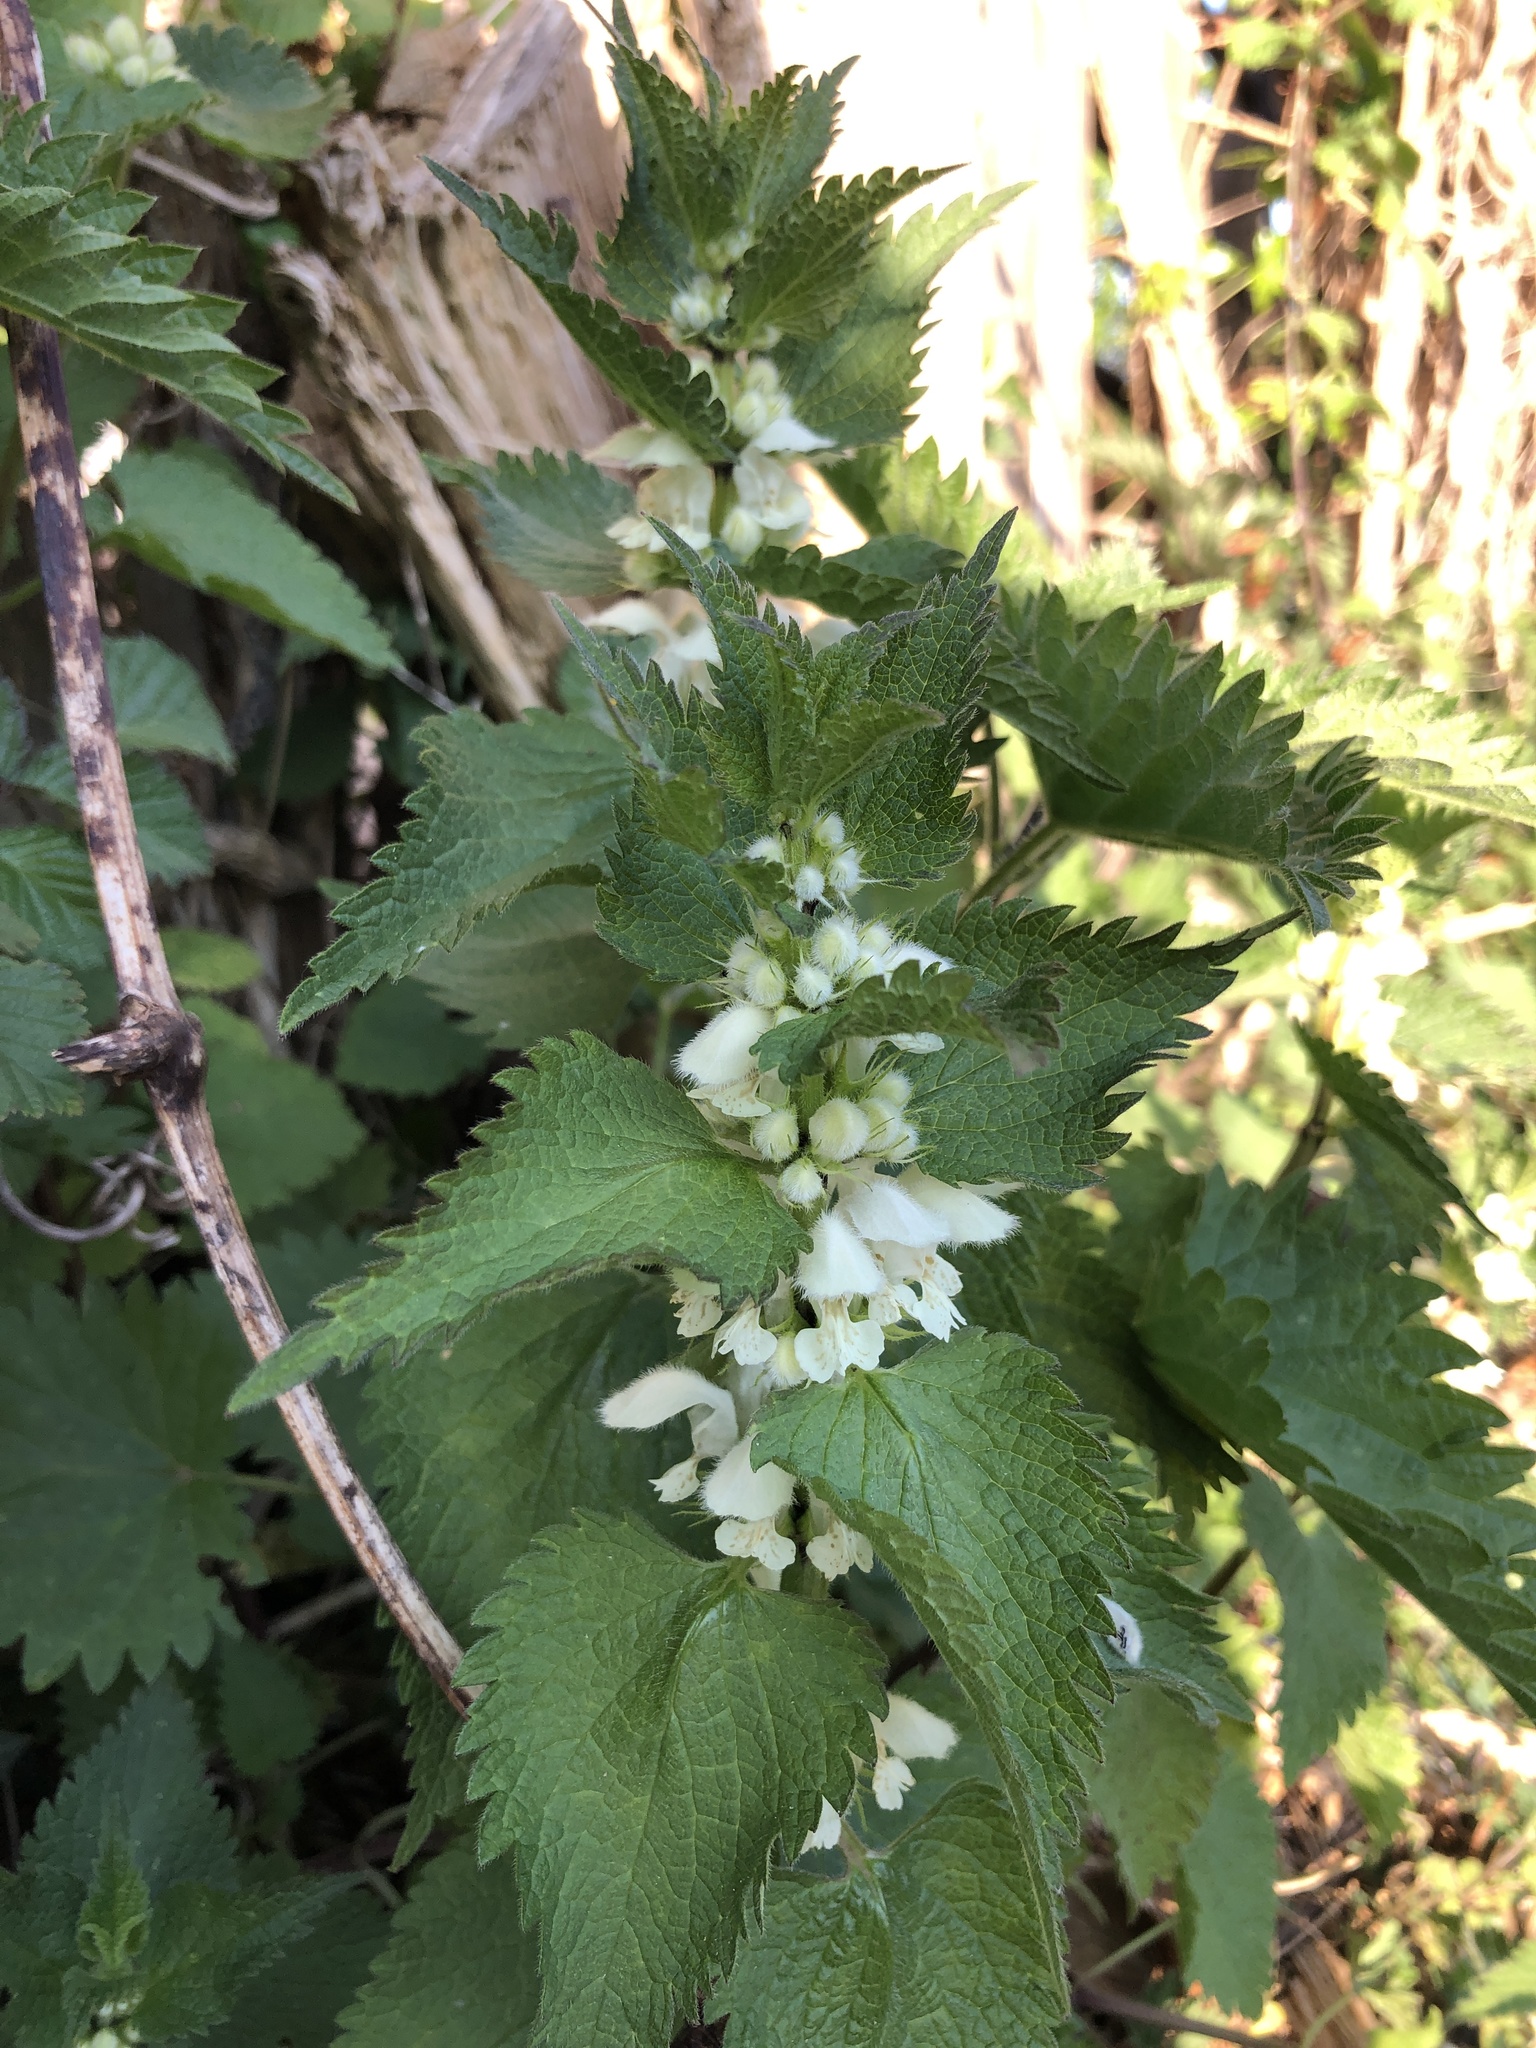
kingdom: Plantae
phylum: Tracheophyta
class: Magnoliopsida
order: Lamiales
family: Lamiaceae
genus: Lamium
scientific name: Lamium album
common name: White dead-nettle
